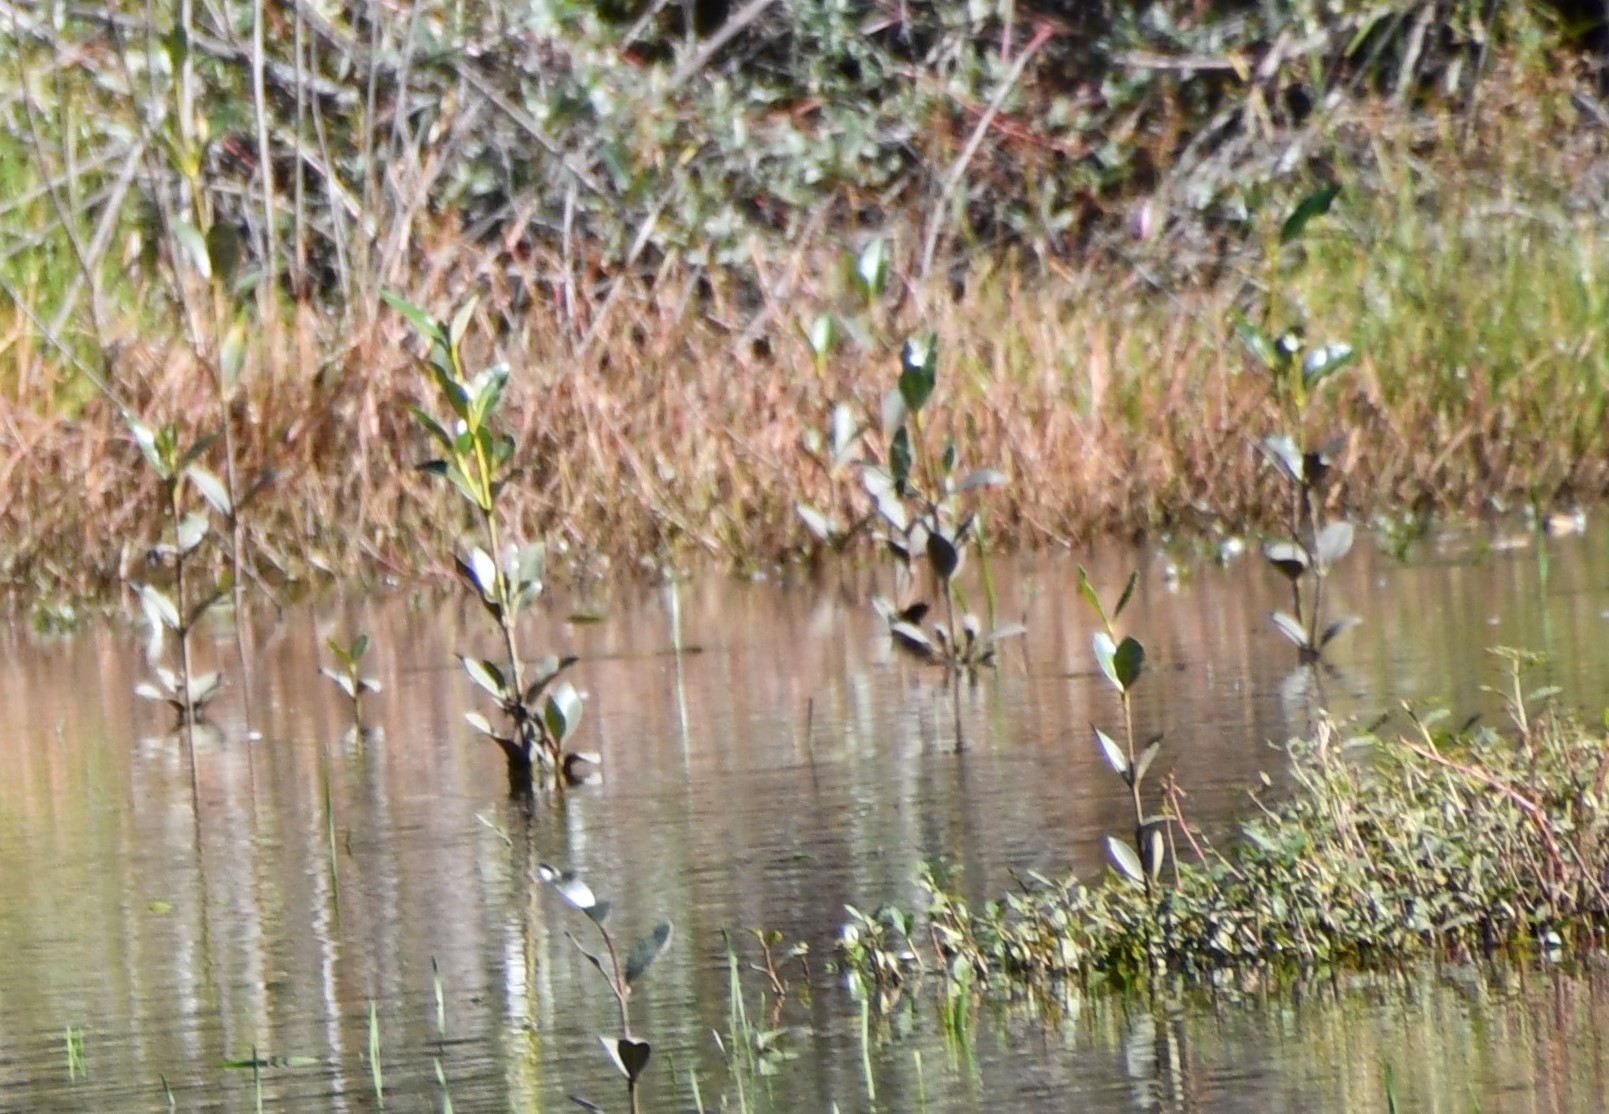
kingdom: Plantae
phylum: Tracheophyta
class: Magnoliopsida
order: Lamiales
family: Acanthaceae
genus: Avicennia
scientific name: Avicennia marina
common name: Gray mangrove
